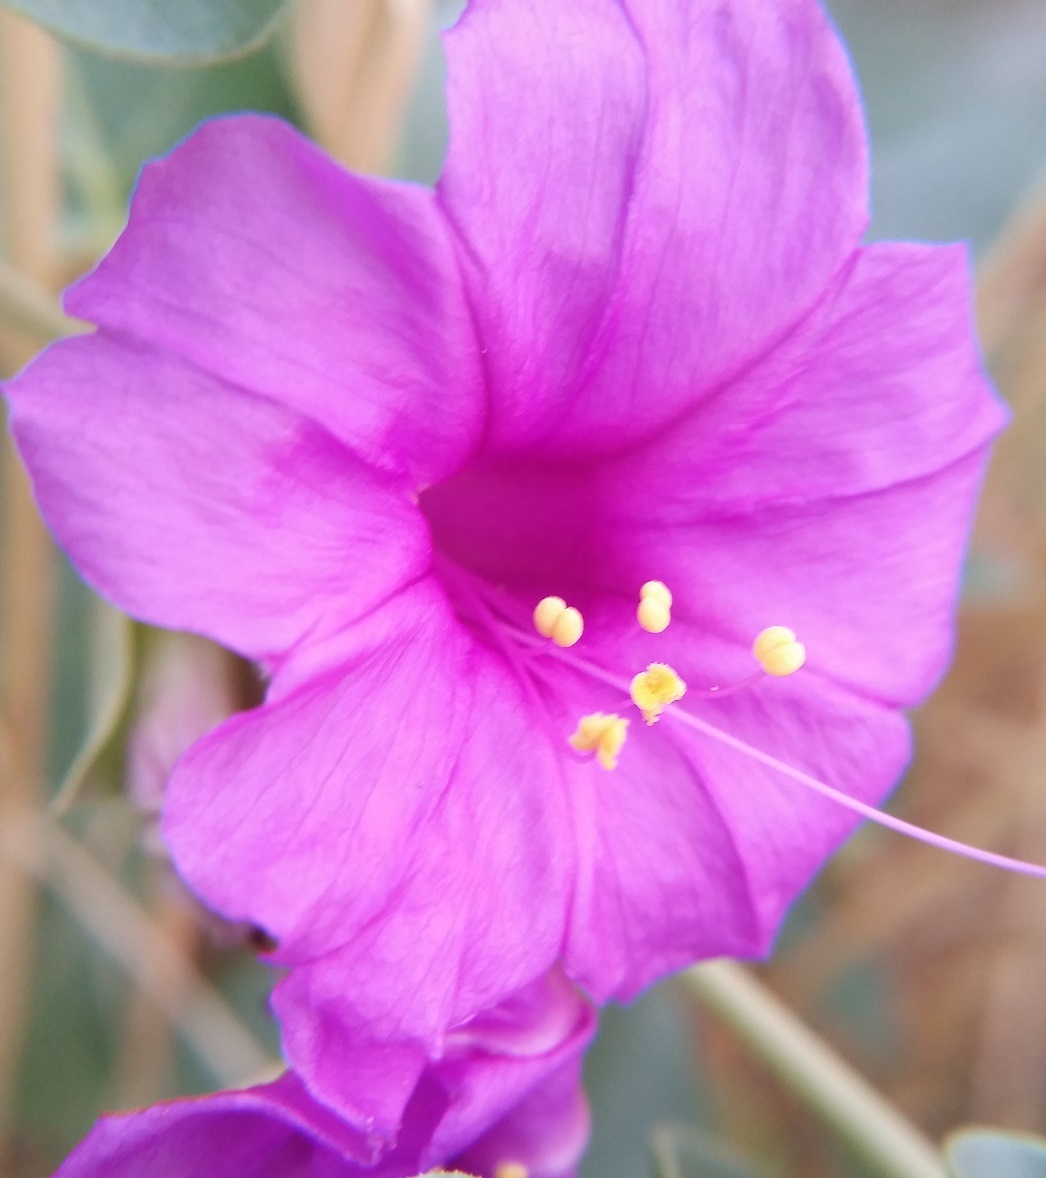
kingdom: Plantae
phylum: Tracheophyta
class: Magnoliopsida
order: Caryophyllales
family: Nyctaginaceae
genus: Mirabilis
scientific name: Mirabilis multiflora
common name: Froebel's four-o'clock
